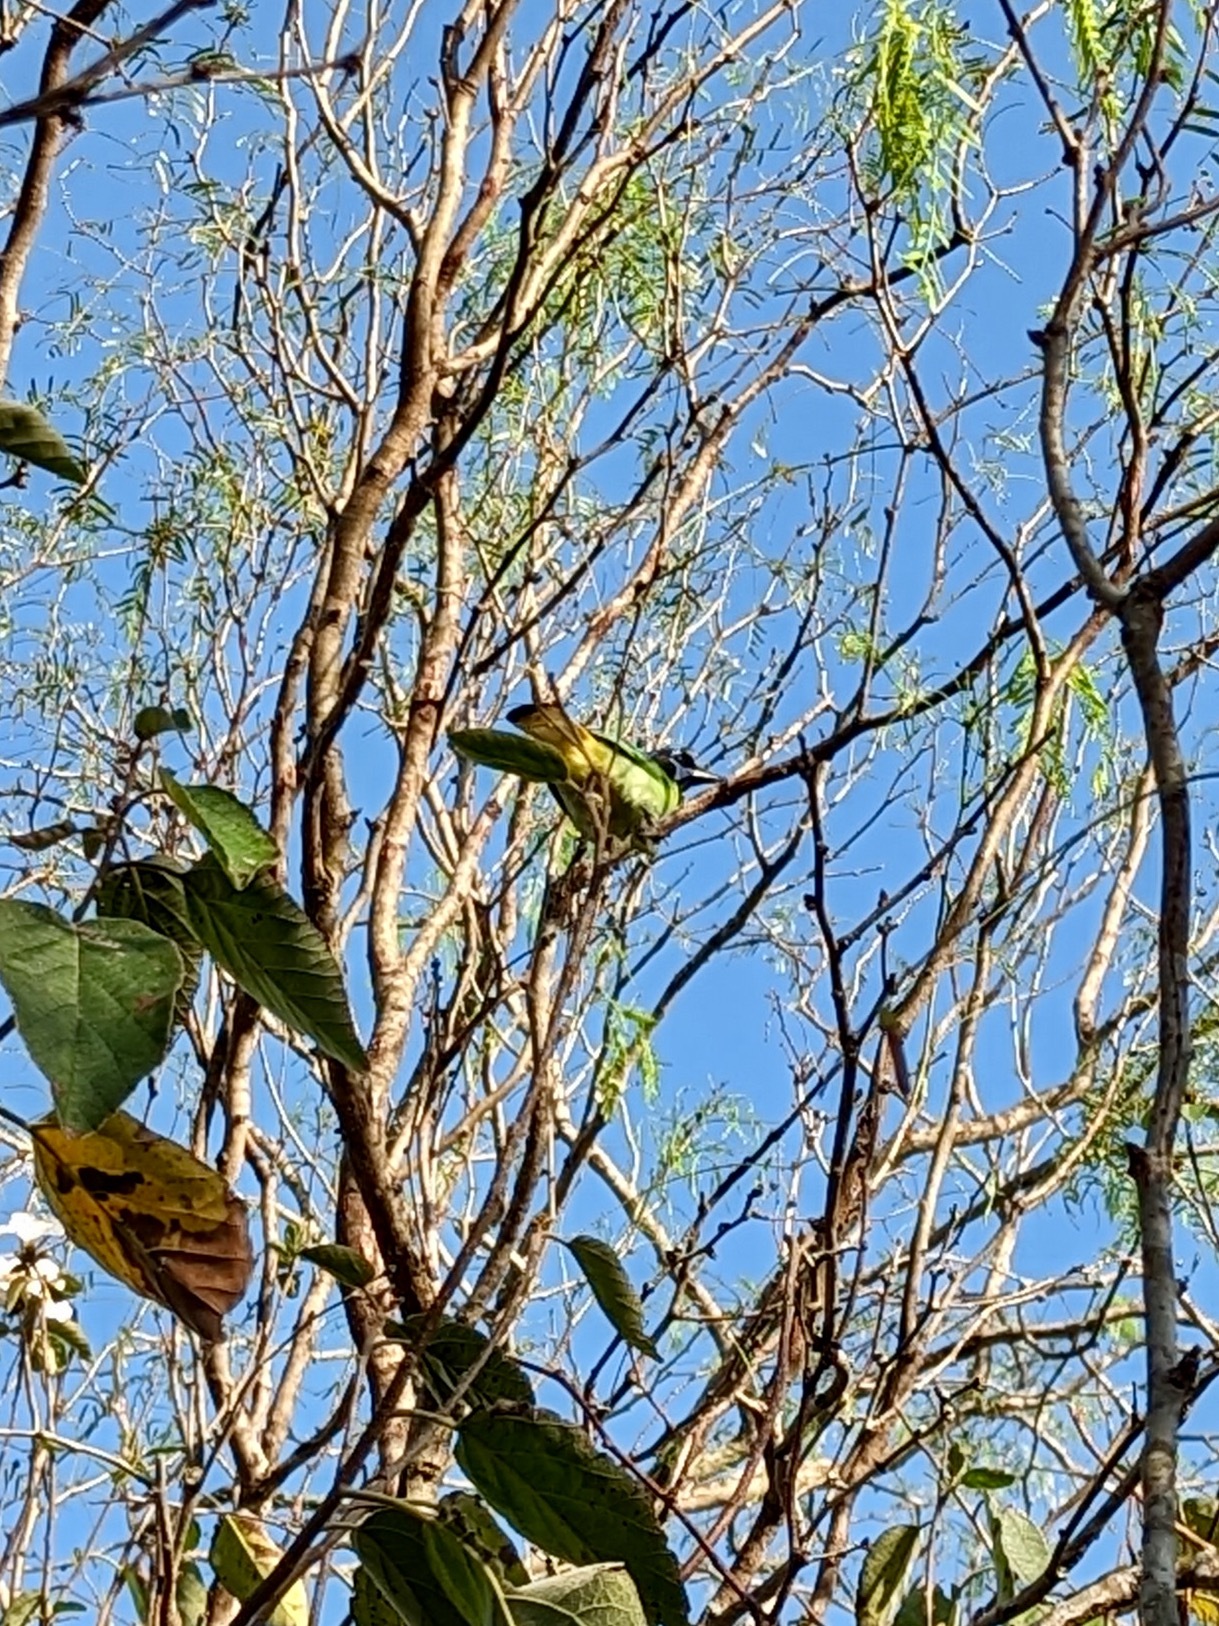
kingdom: Animalia
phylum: Chordata
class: Aves
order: Passeriformes
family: Corvidae
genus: Cyanocorax
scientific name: Cyanocorax yncas
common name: Green jay
